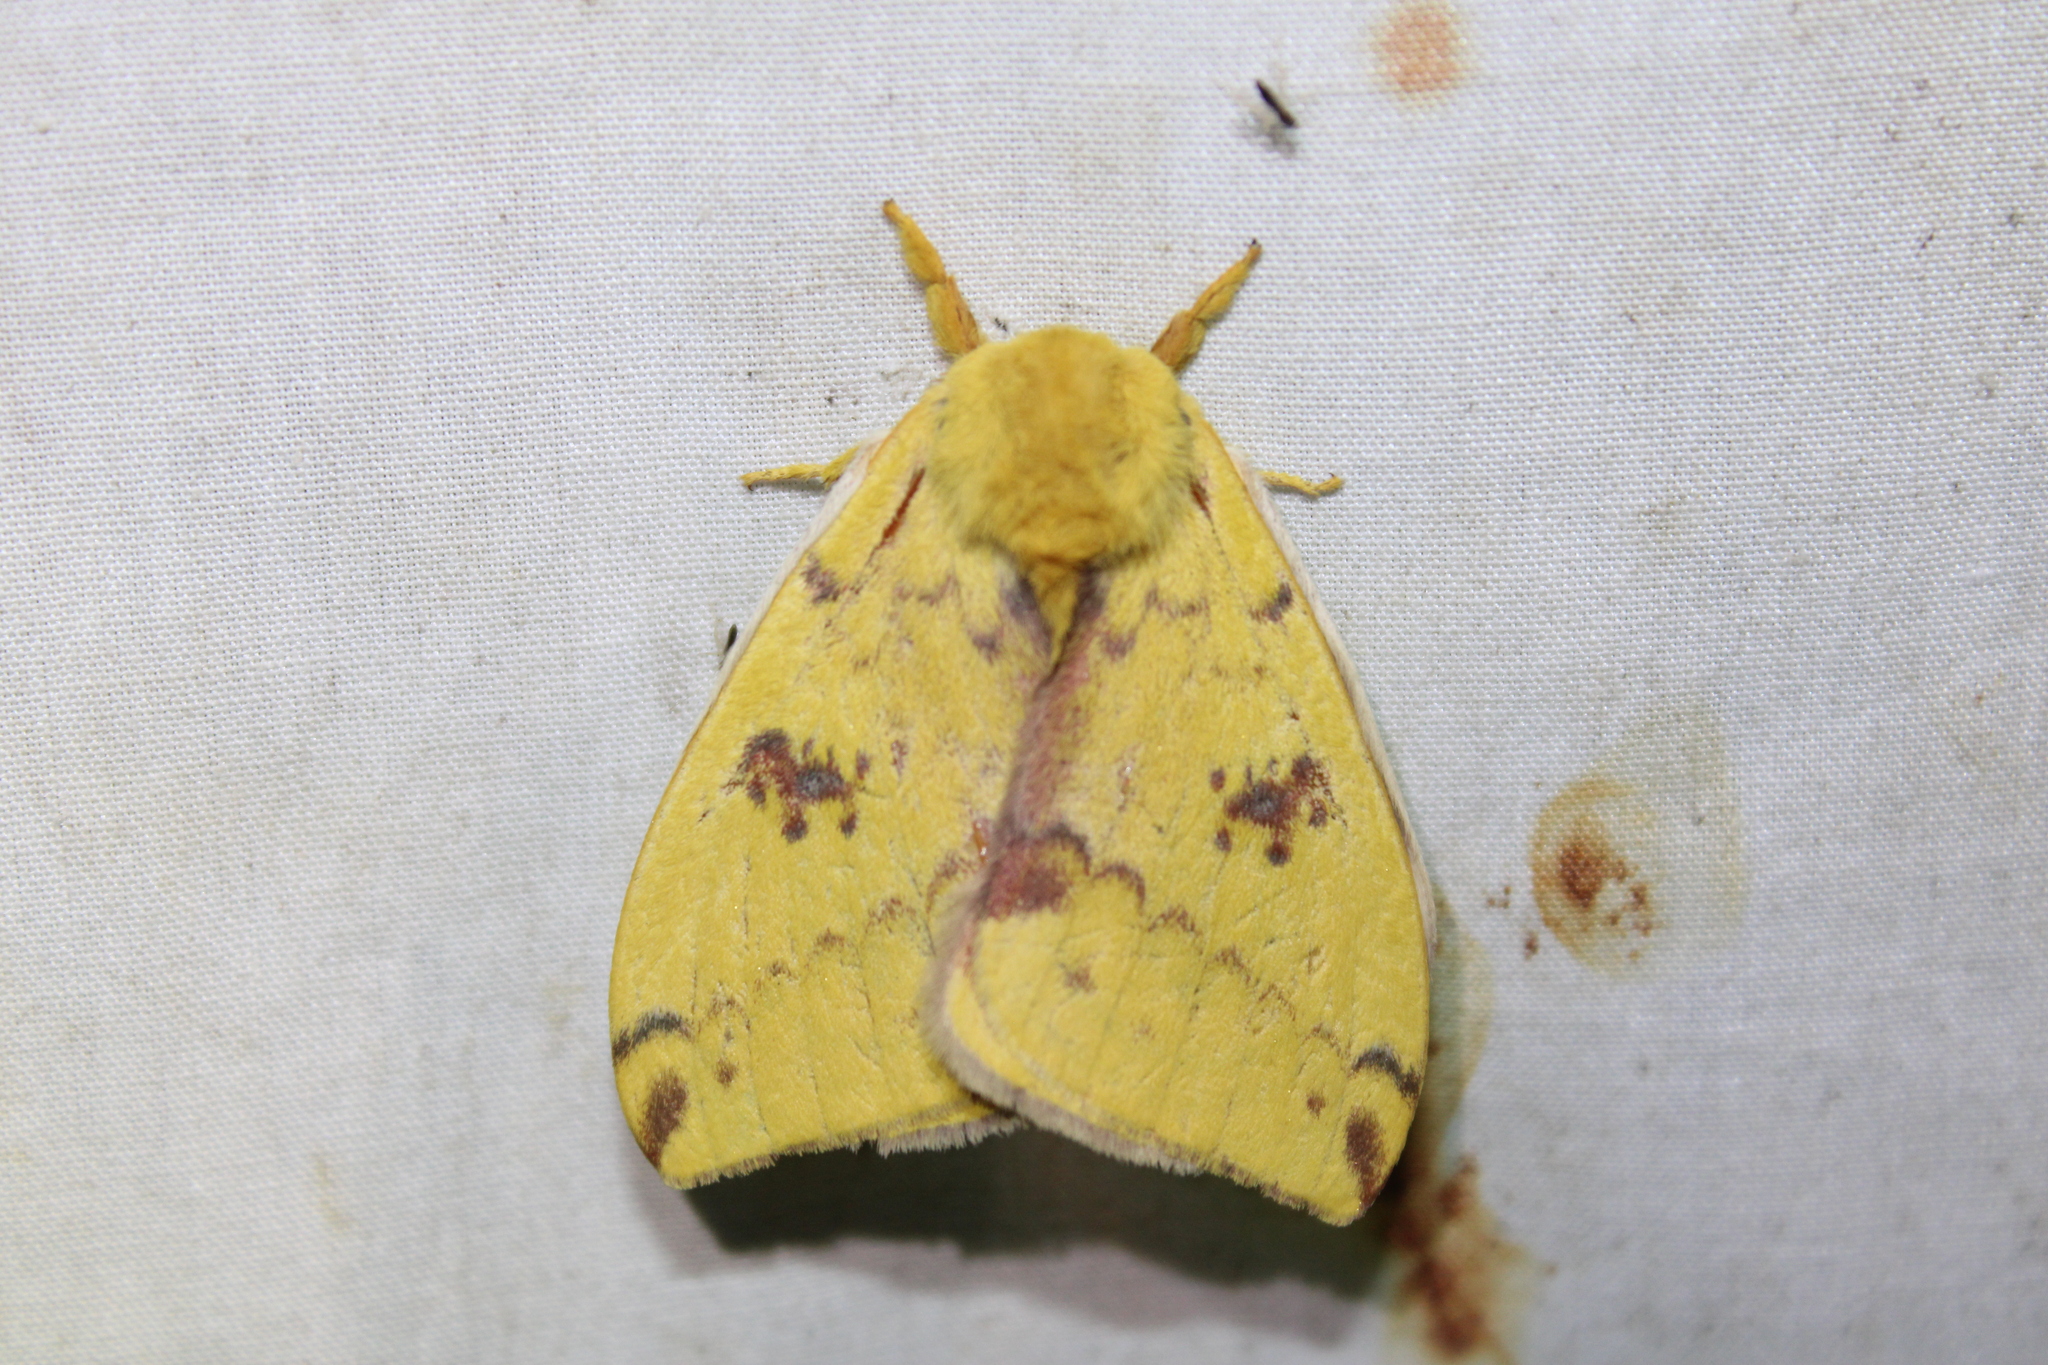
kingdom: Animalia
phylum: Arthropoda
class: Insecta
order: Lepidoptera
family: Saturniidae
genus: Automeris
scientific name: Automeris io
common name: Io moth
